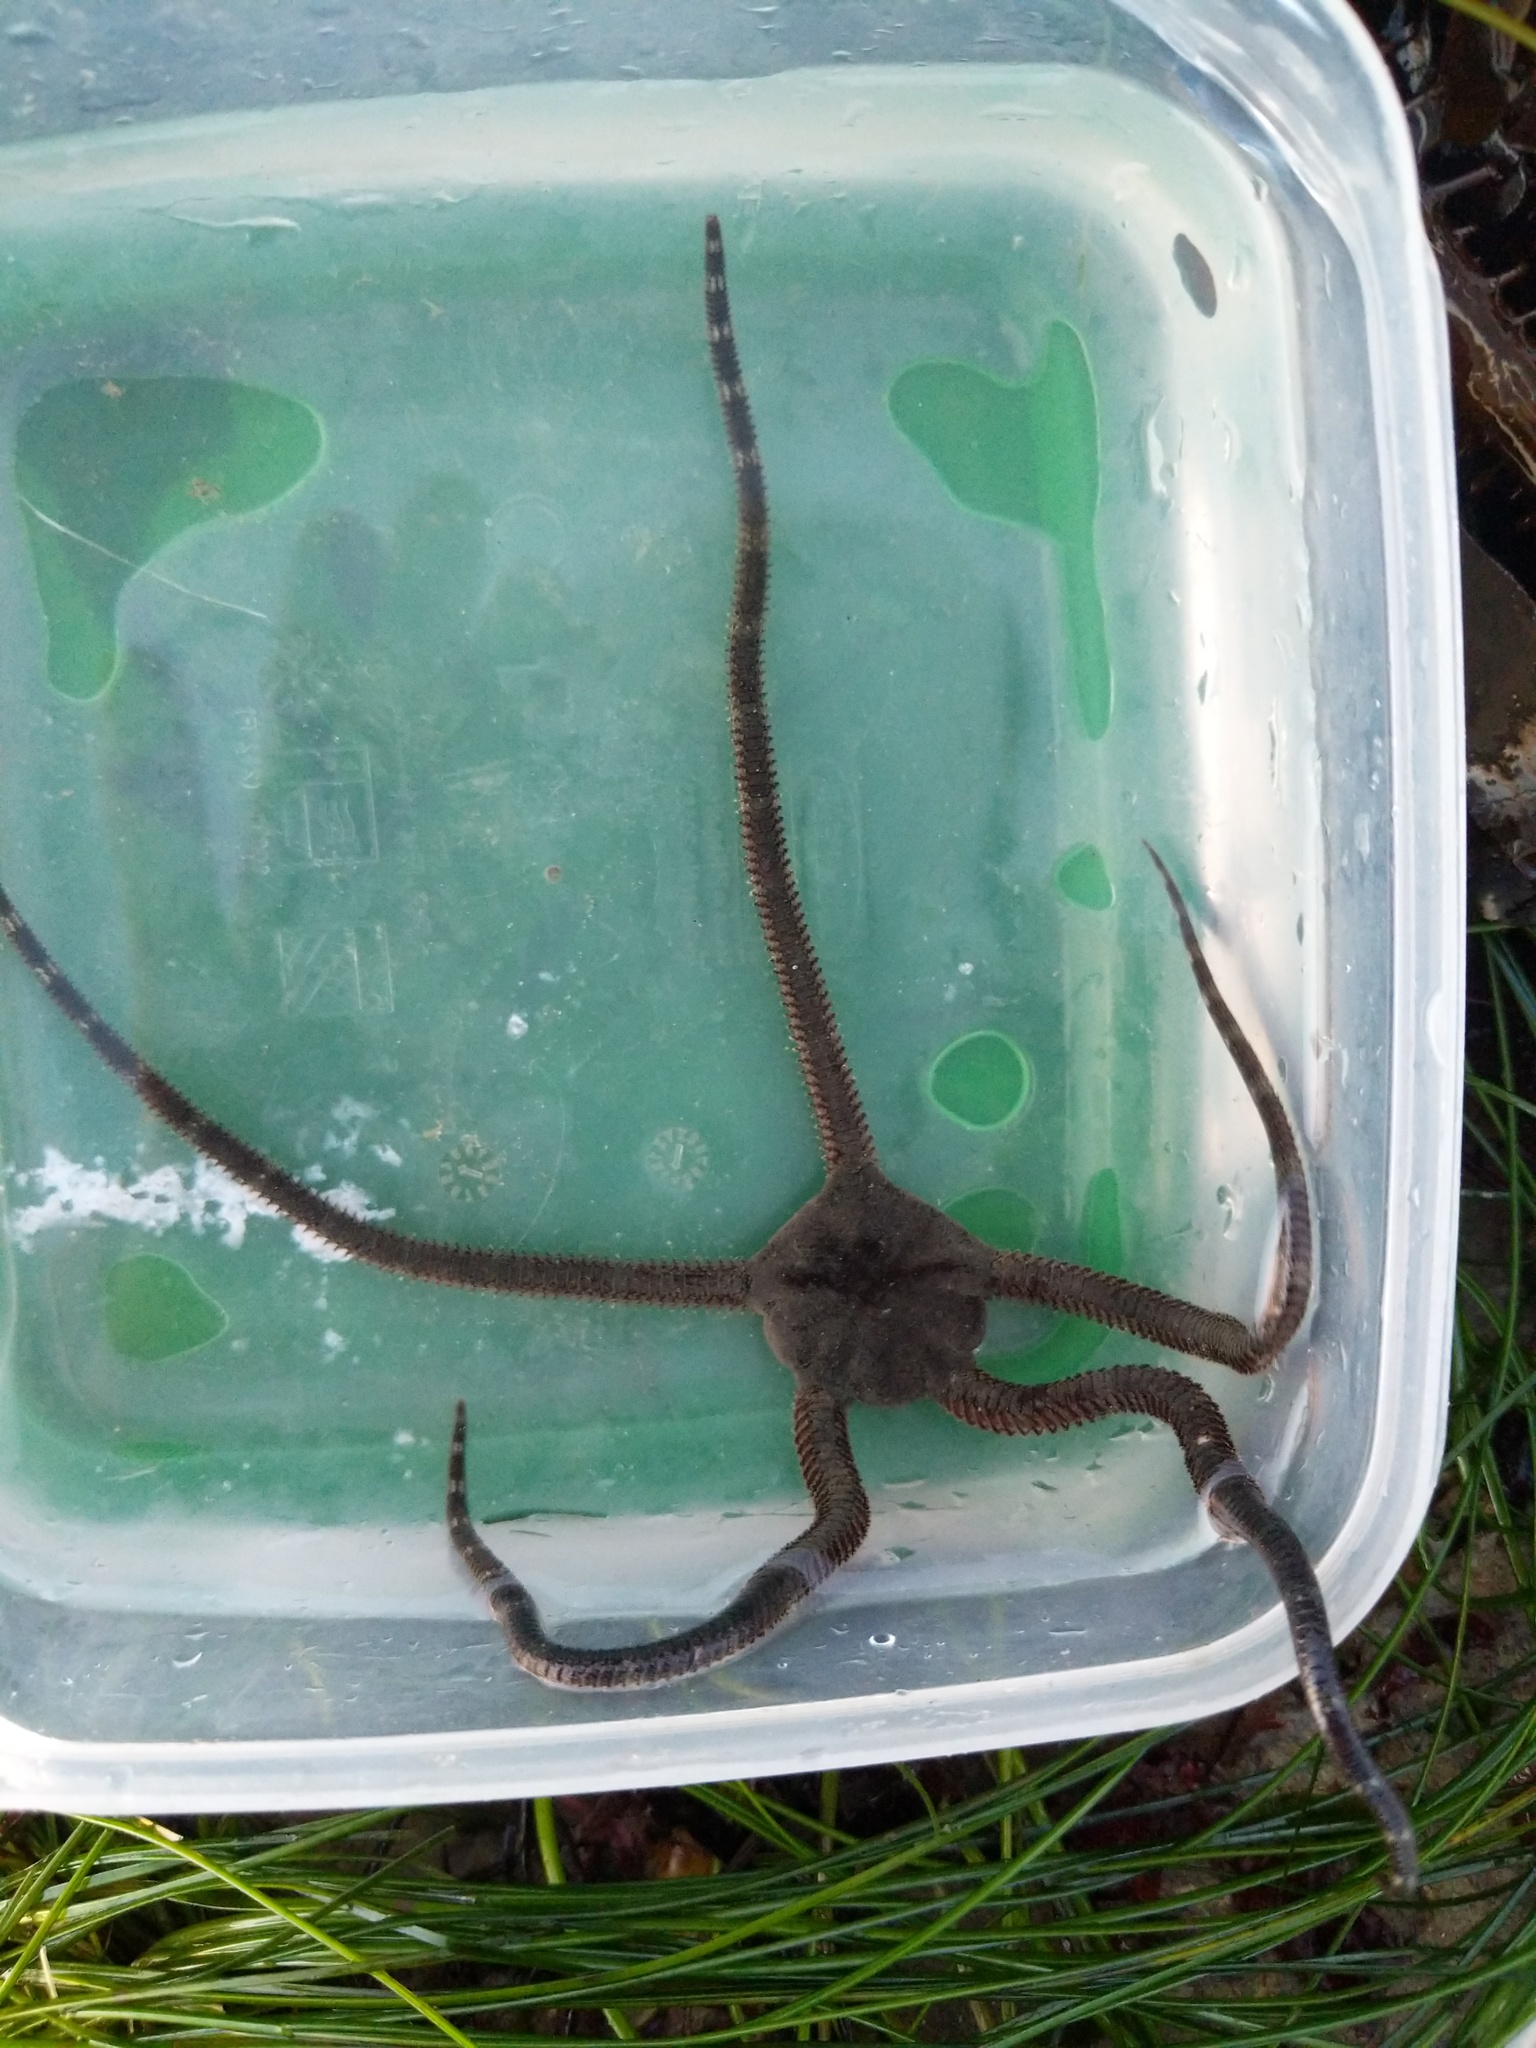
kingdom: Animalia
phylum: Echinodermata
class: Ophiuroidea
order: Ophiacanthida
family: Ophiodermatidae
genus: Ophioderma
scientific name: Ophioderma panamense
